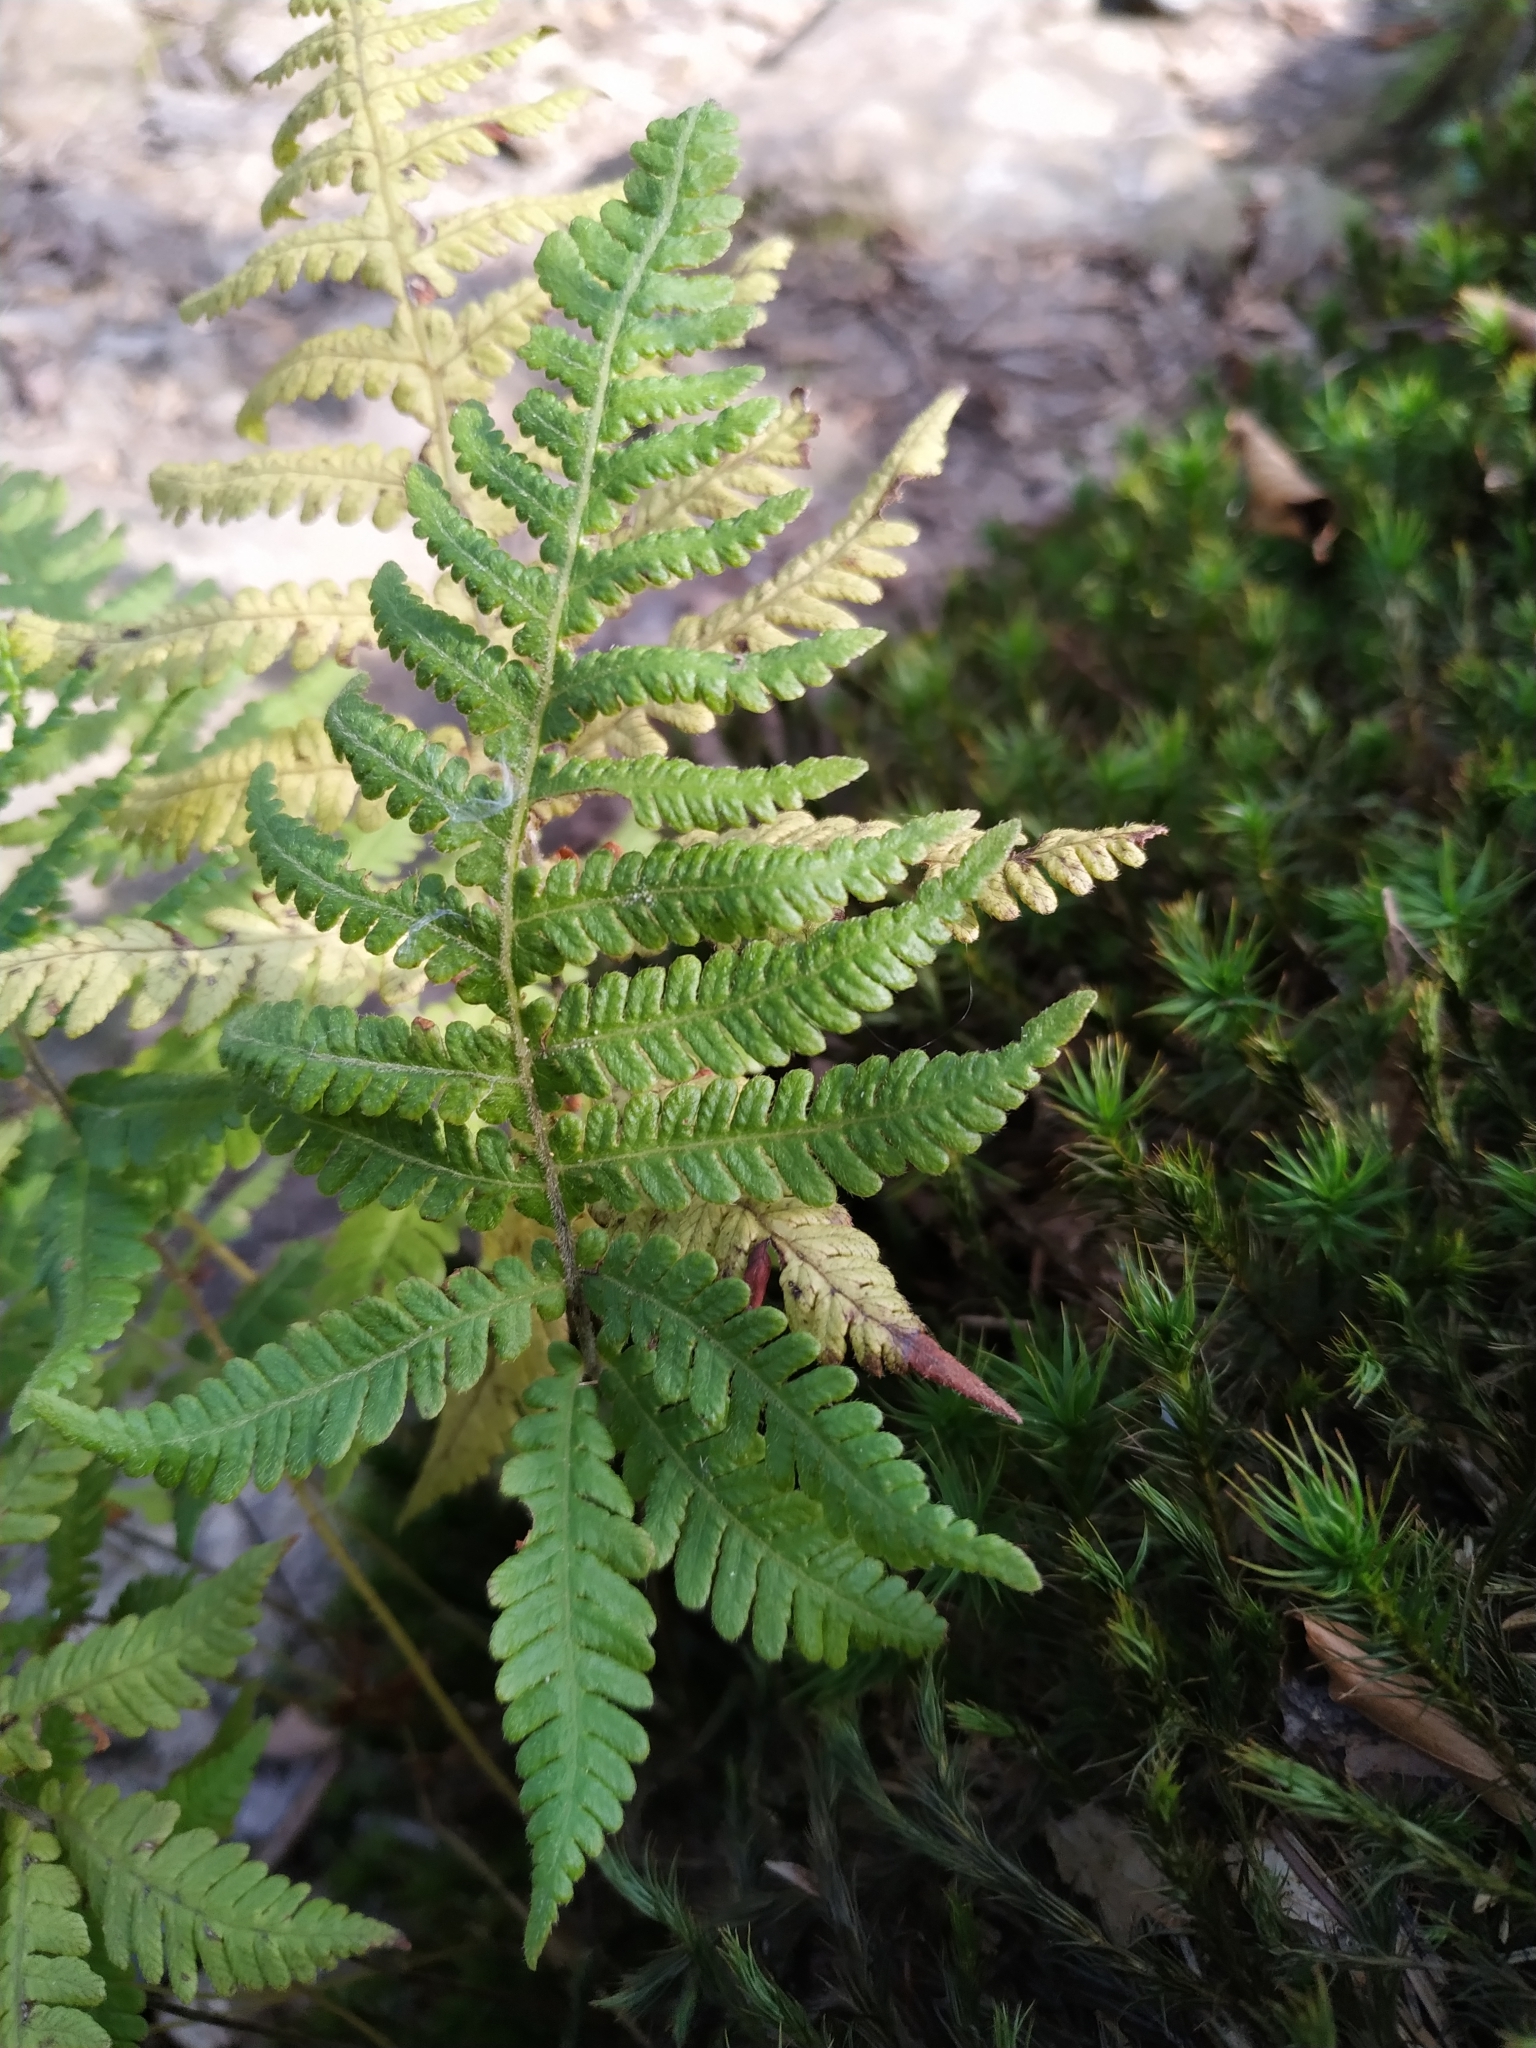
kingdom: Plantae
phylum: Tracheophyta
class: Polypodiopsida
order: Polypodiales
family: Thelypteridaceae
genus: Phegopteris
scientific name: Phegopteris connectilis
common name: Beech fern
